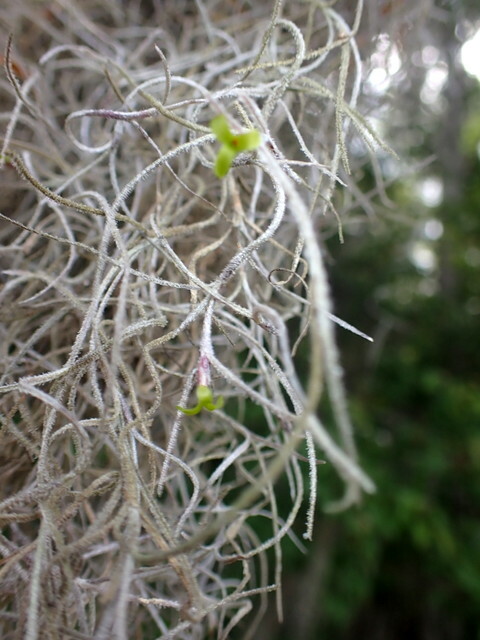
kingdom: Plantae
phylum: Tracheophyta
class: Liliopsida
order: Poales
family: Bromeliaceae
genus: Tillandsia
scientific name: Tillandsia usneoides
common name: Spanish moss
